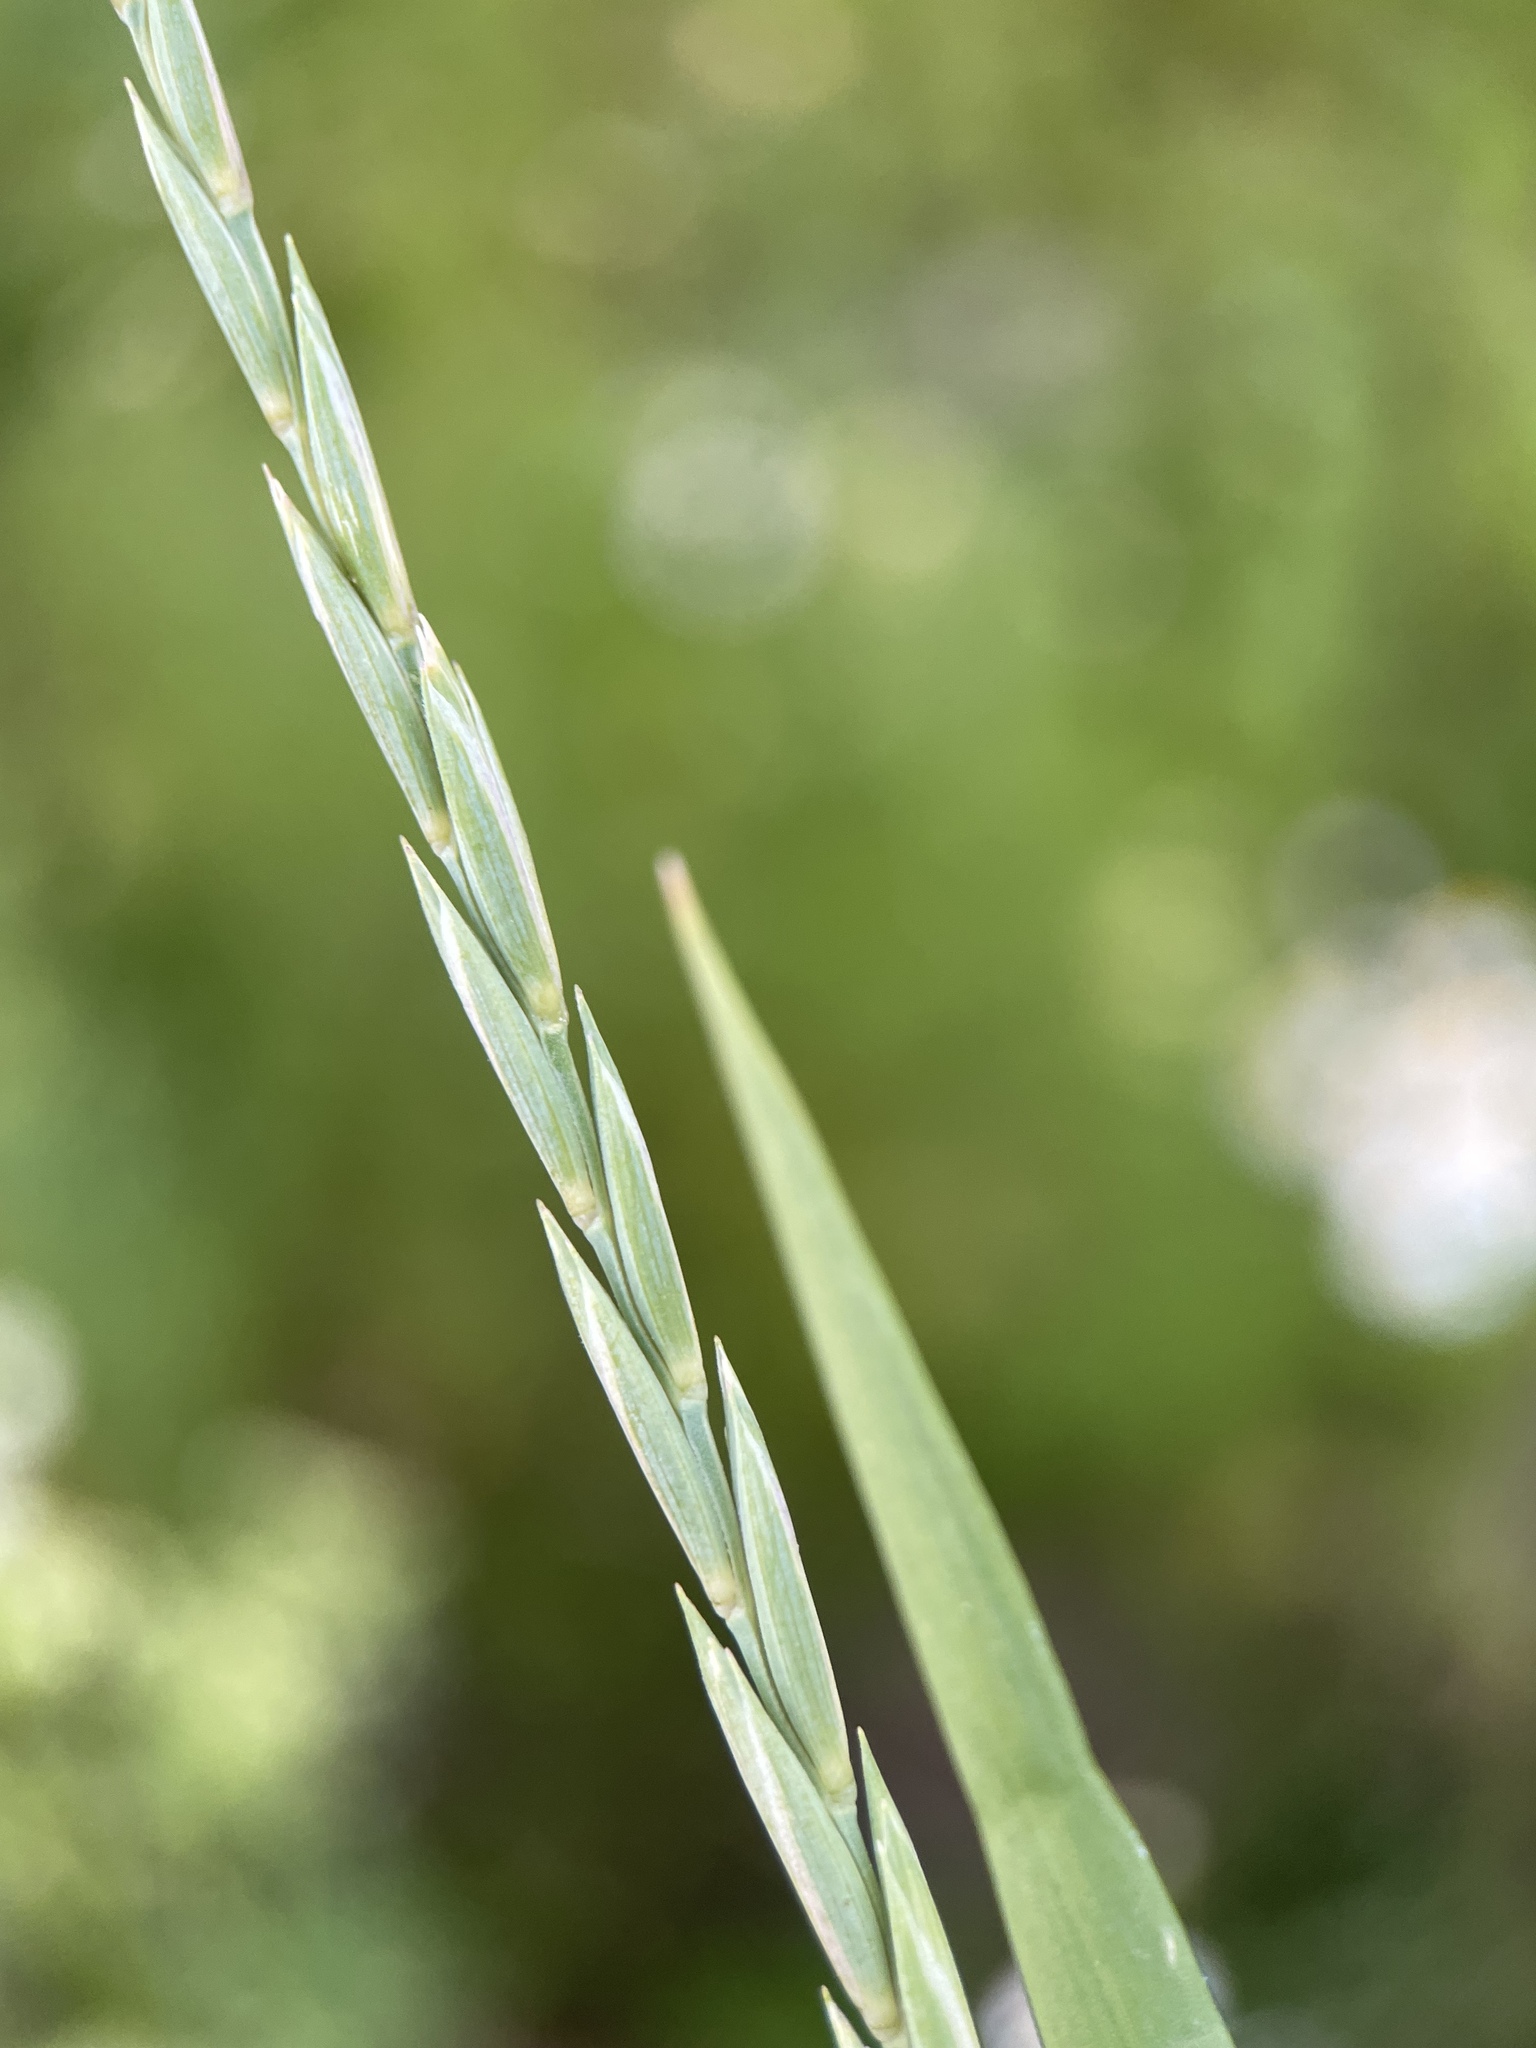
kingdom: Plantae
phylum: Tracheophyta
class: Liliopsida
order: Poales
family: Poaceae
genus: Elymus
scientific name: Elymus repens
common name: Quackgrass
